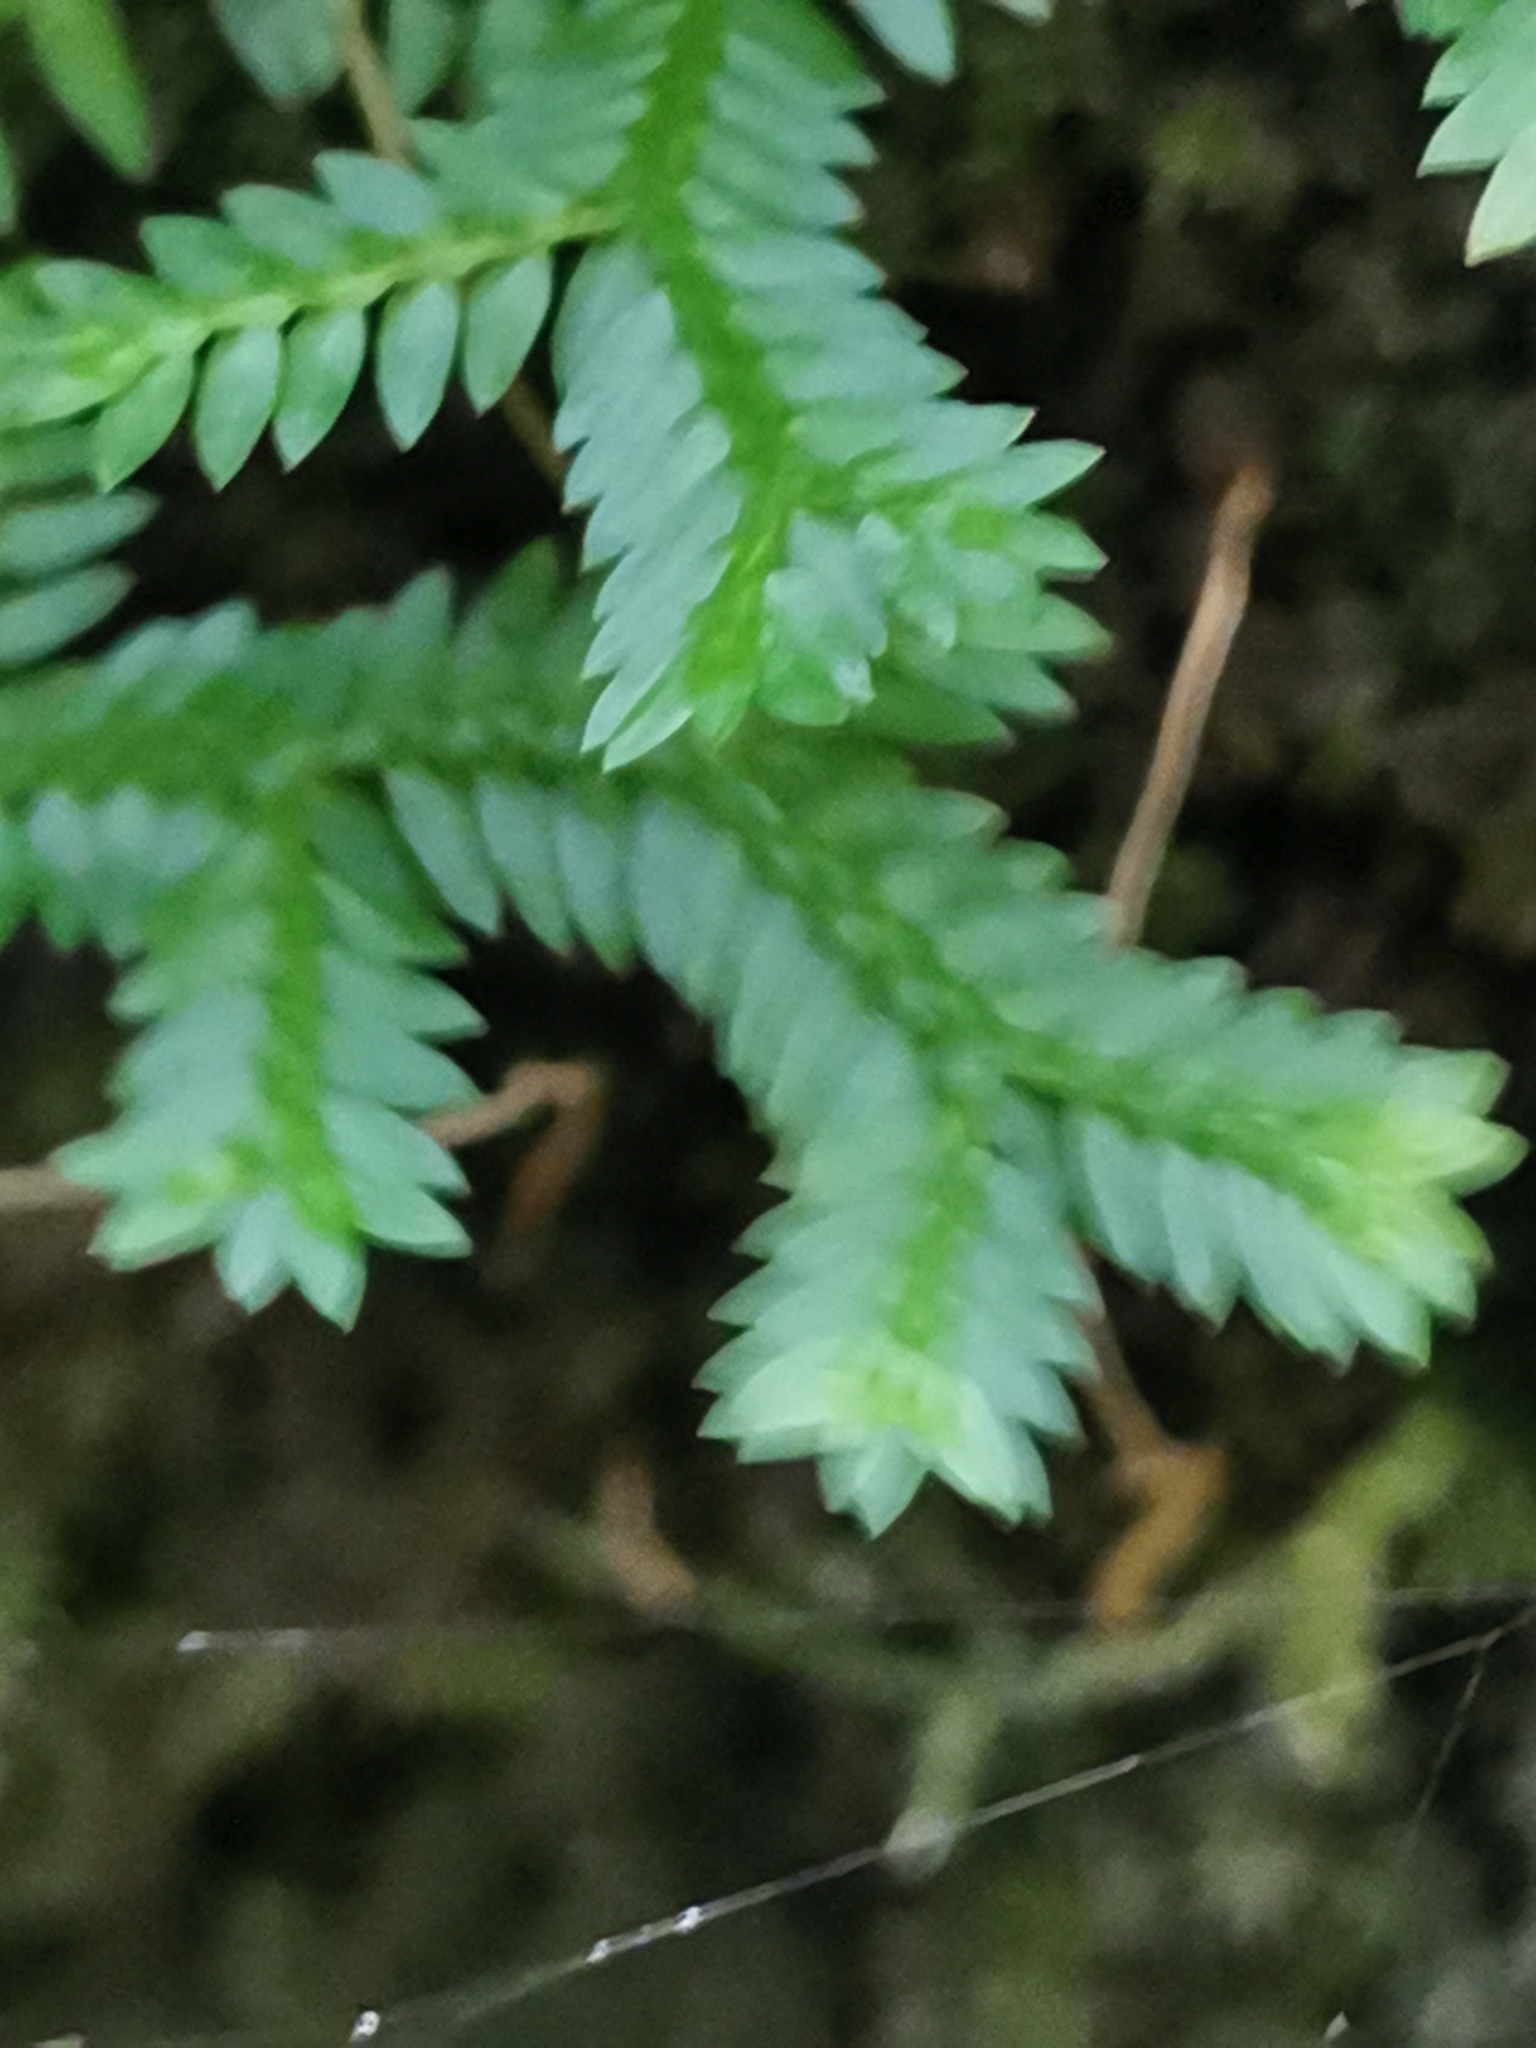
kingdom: Plantae
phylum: Tracheophyta
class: Lycopodiopsida
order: Selaginellales
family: Selaginellaceae
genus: Selaginella
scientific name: Selaginella kraussiana
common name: Krauss' spikemoss
